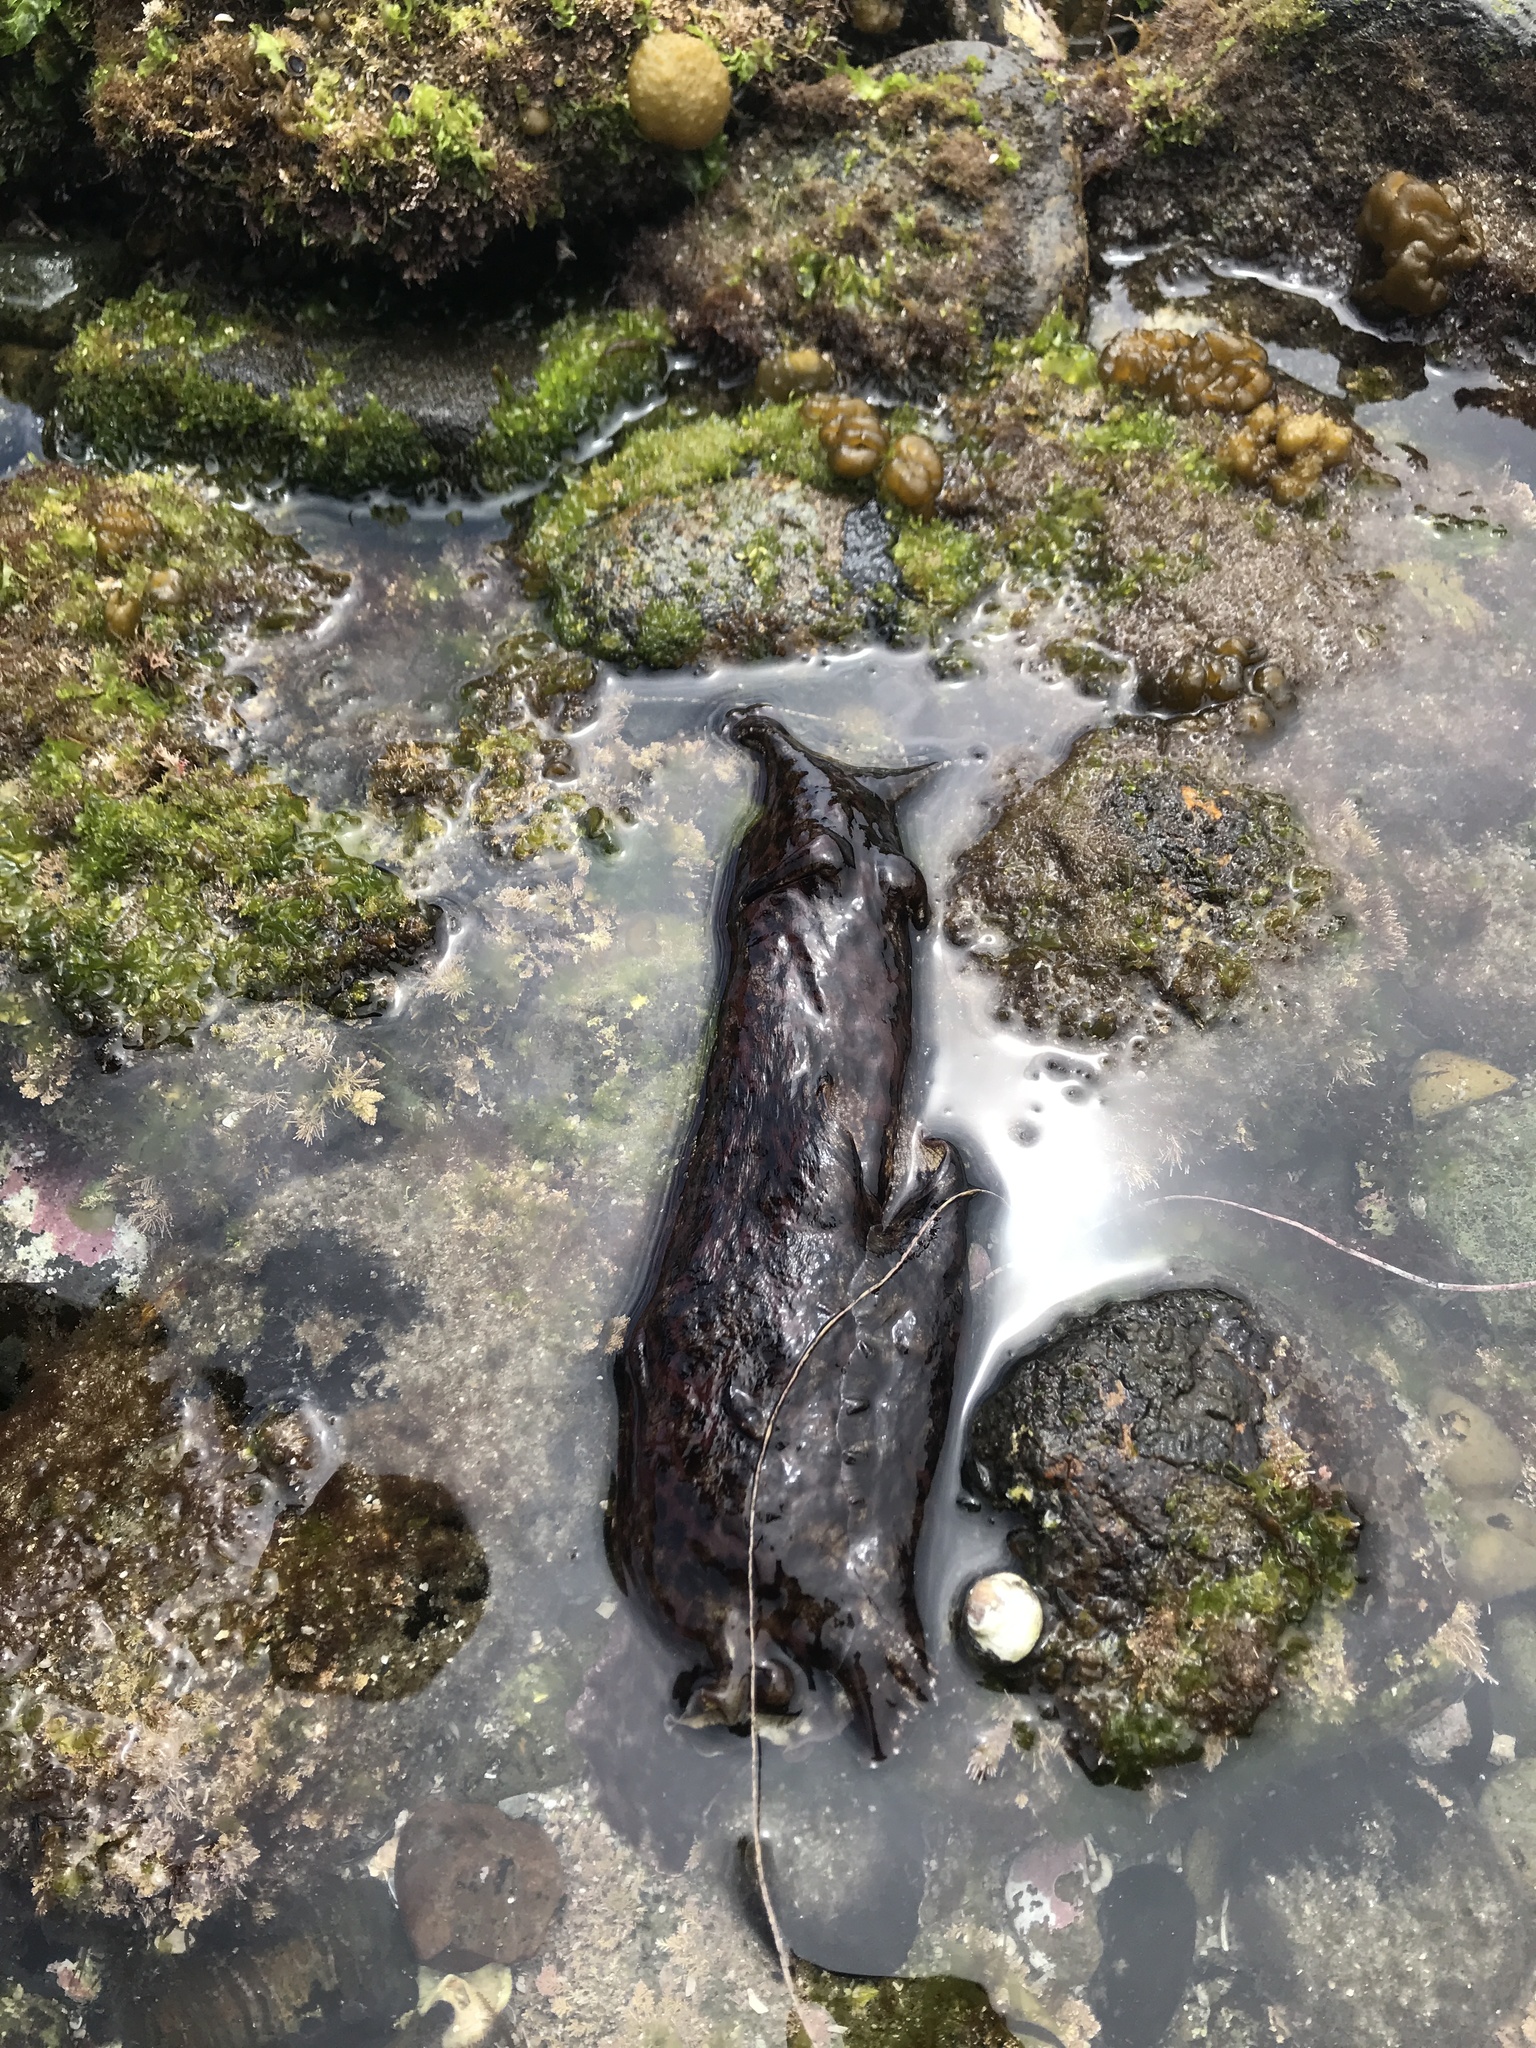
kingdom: Animalia
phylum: Mollusca
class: Gastropoda
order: Aplysiida
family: Aplysiidae
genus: Aplysia
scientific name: Aplysia californica
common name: California seahare
